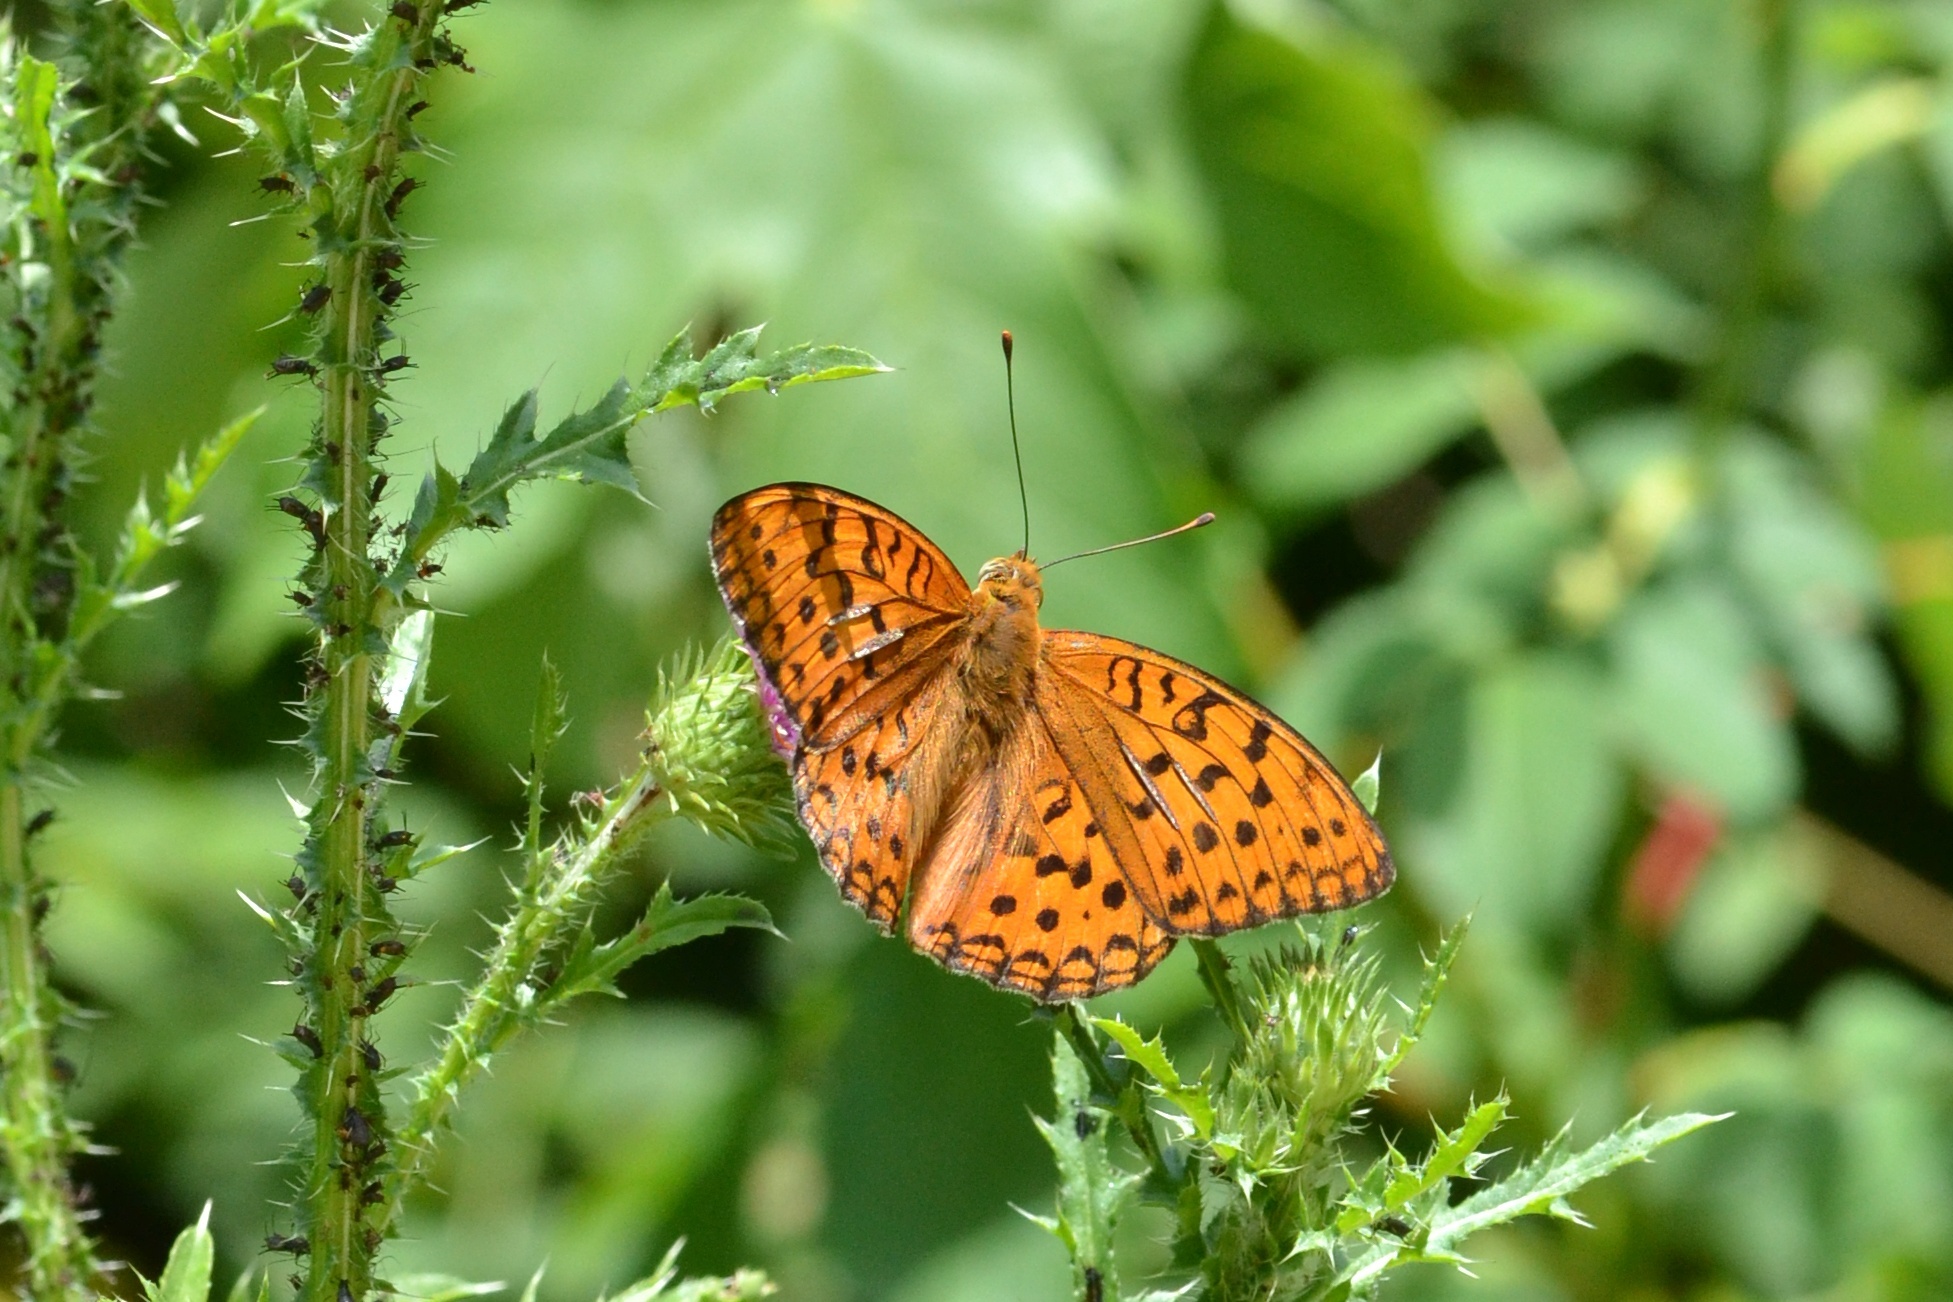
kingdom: Animalia
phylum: Arthropoda
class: Insecta
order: Lepidoptera
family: Nymphalidae
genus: Fabriciana
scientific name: Fabriciana adippe
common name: High brown fritillary
